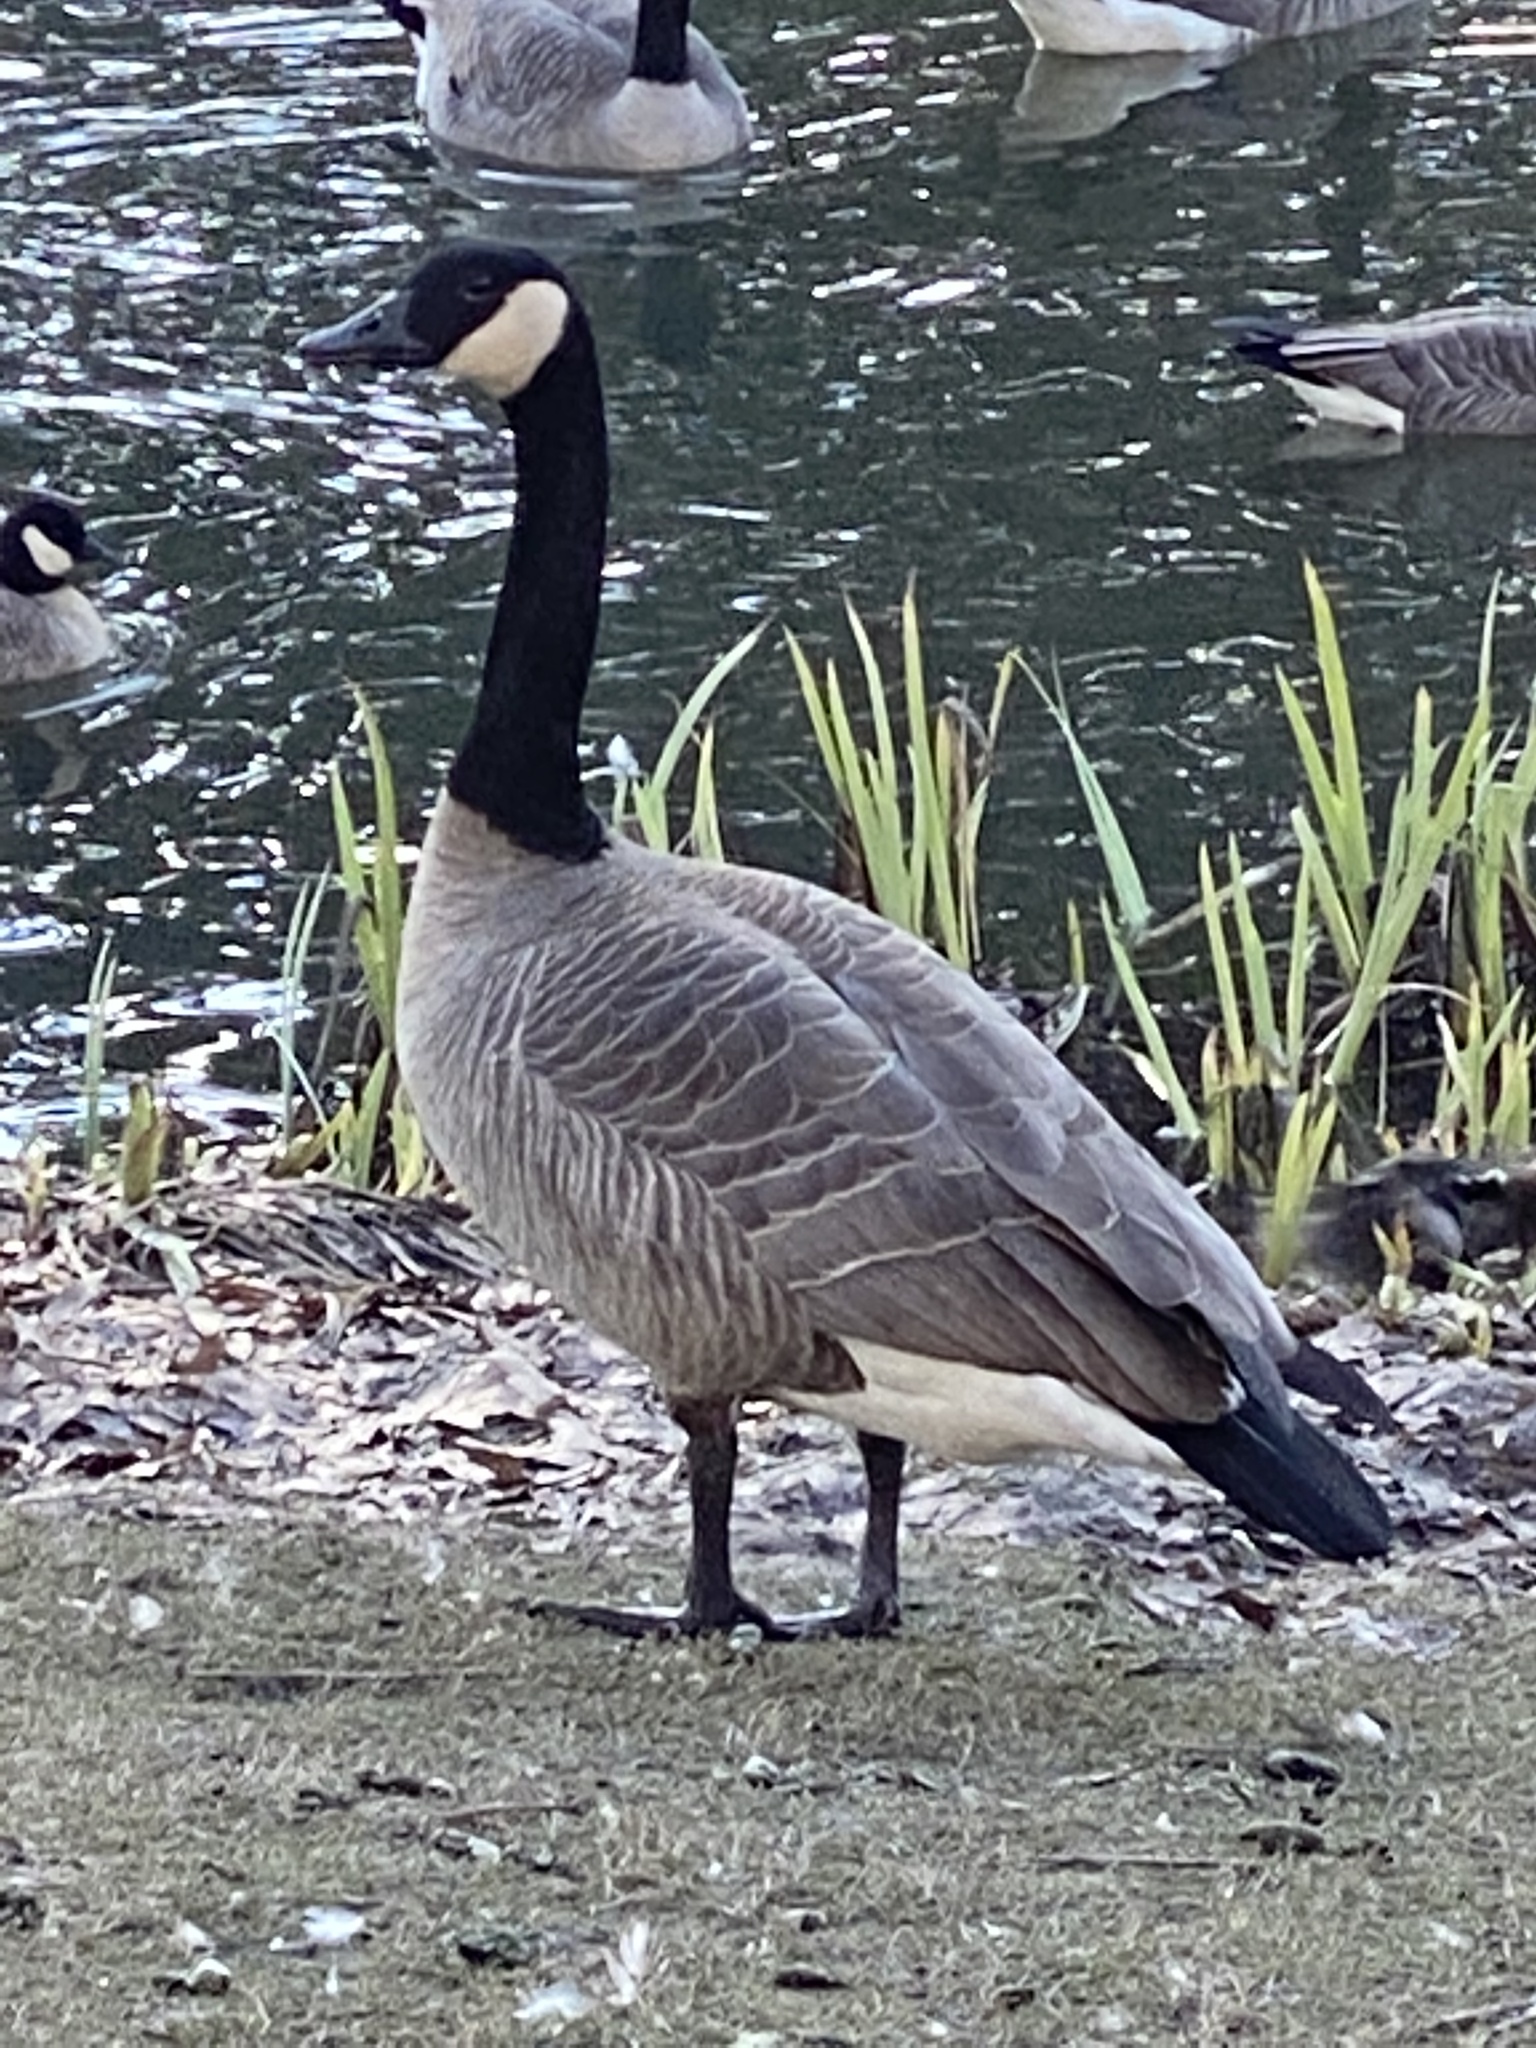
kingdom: Animalia
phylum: Chordata
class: Aves
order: Anseriformes
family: Anatidae
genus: Branta
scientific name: Branta canadensis
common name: Canada goose
